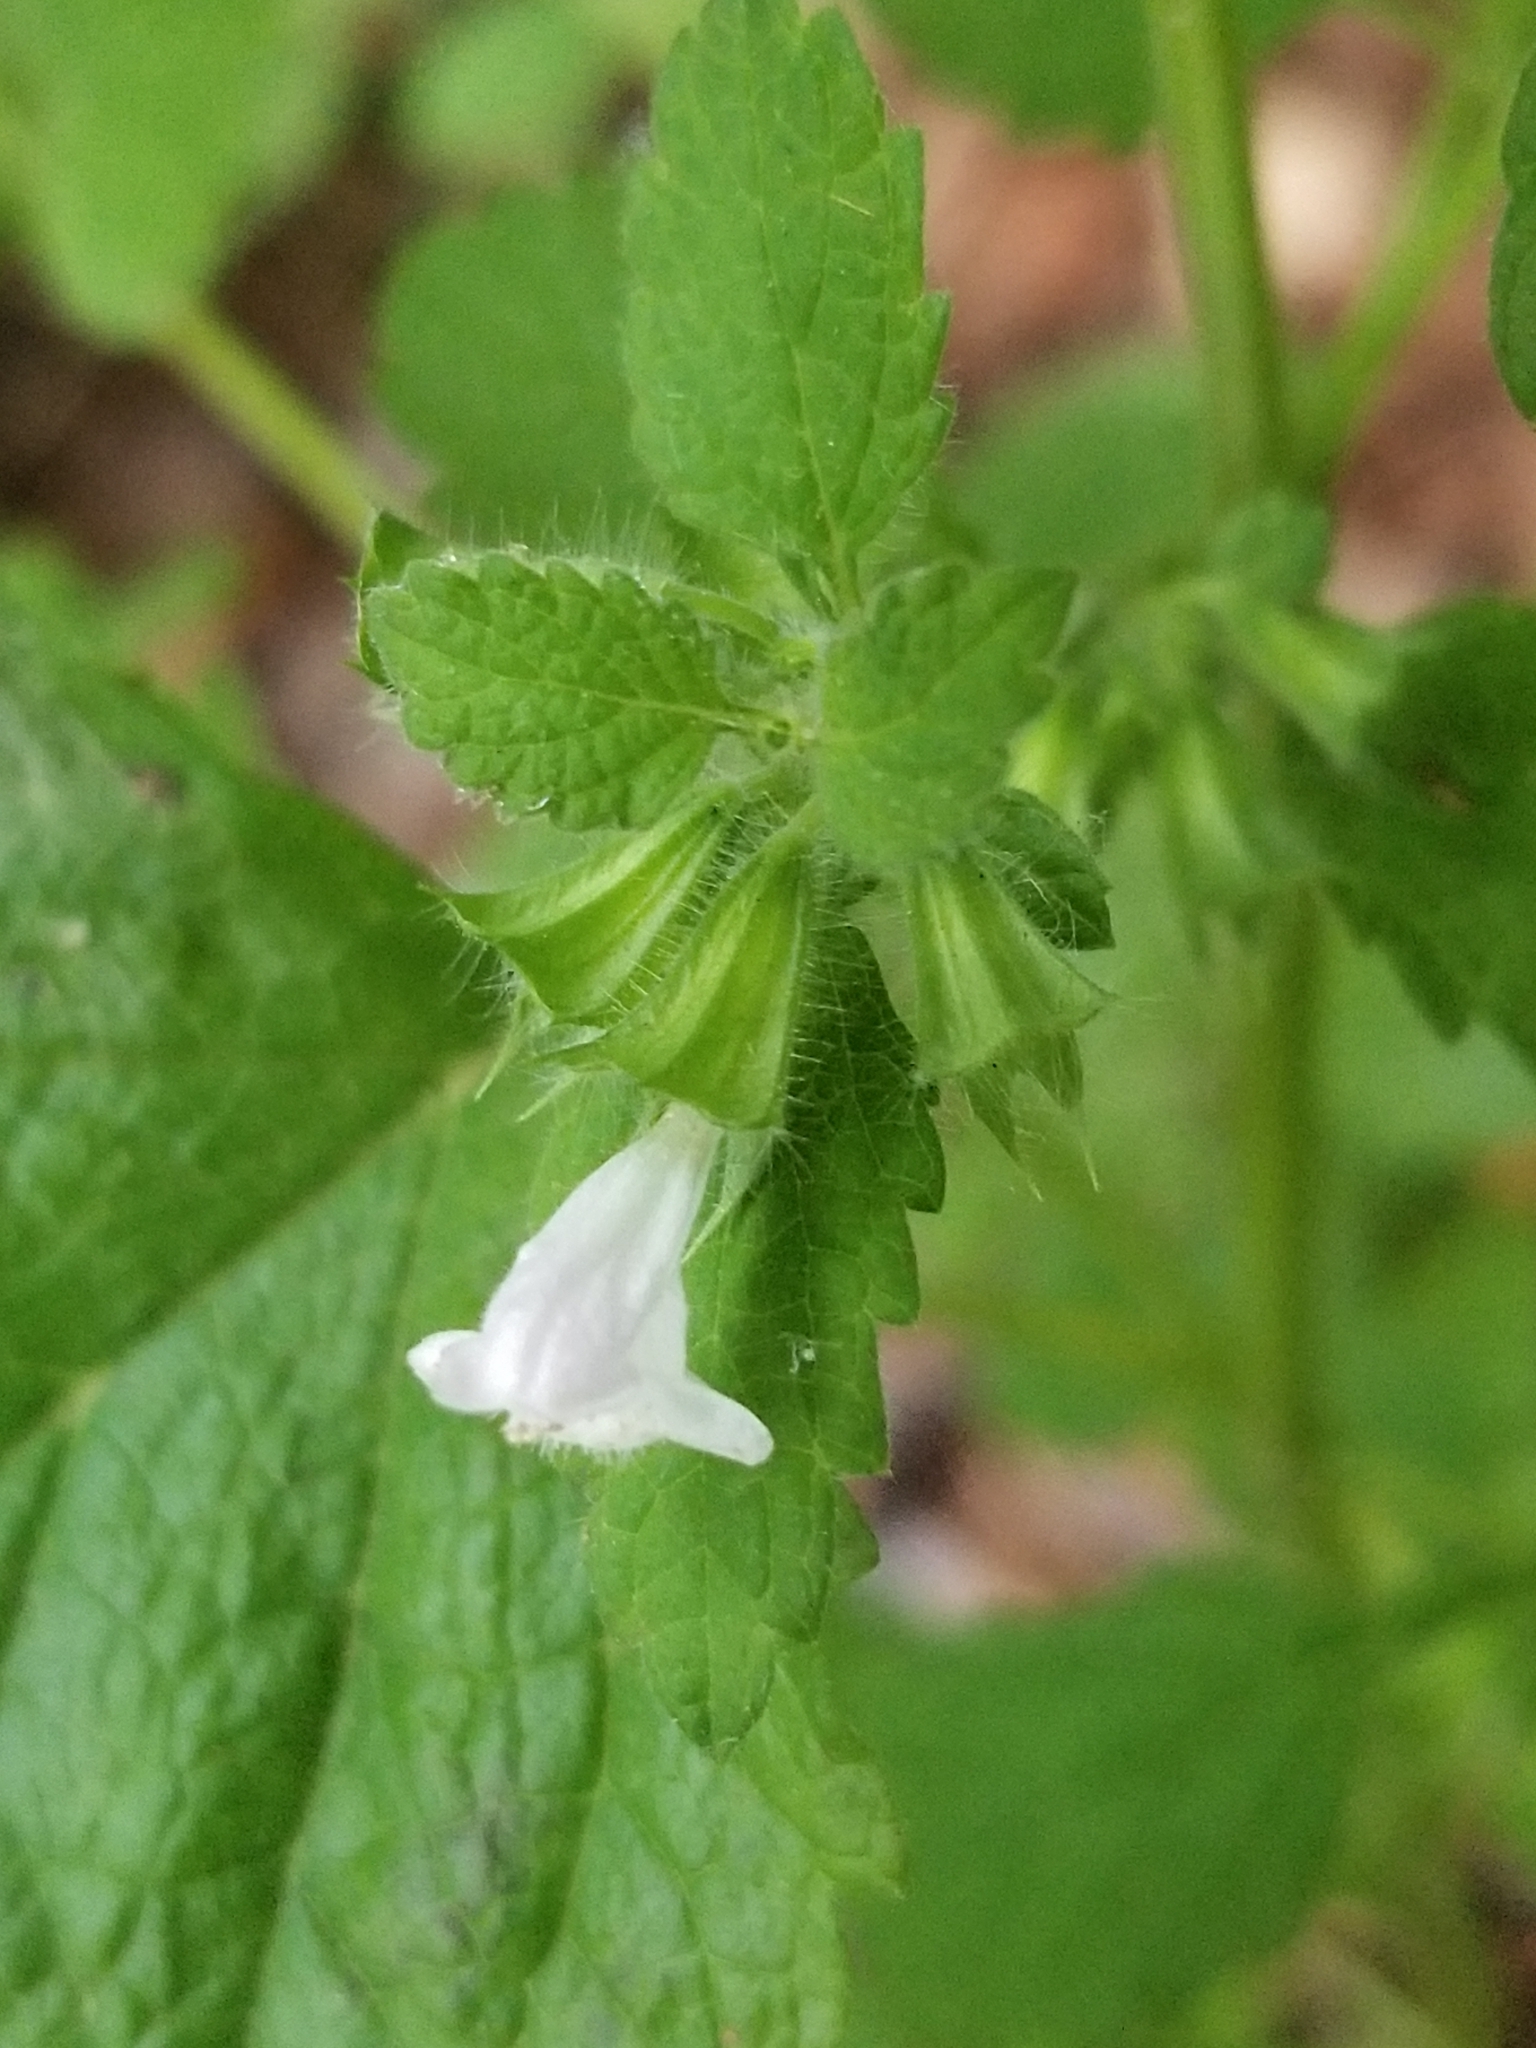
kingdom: Plantae
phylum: Tracheophyta
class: Magnoliopsida
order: Lamiales
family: Lamiaceae
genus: Melissa
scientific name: Melissa officinalis
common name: Balm
